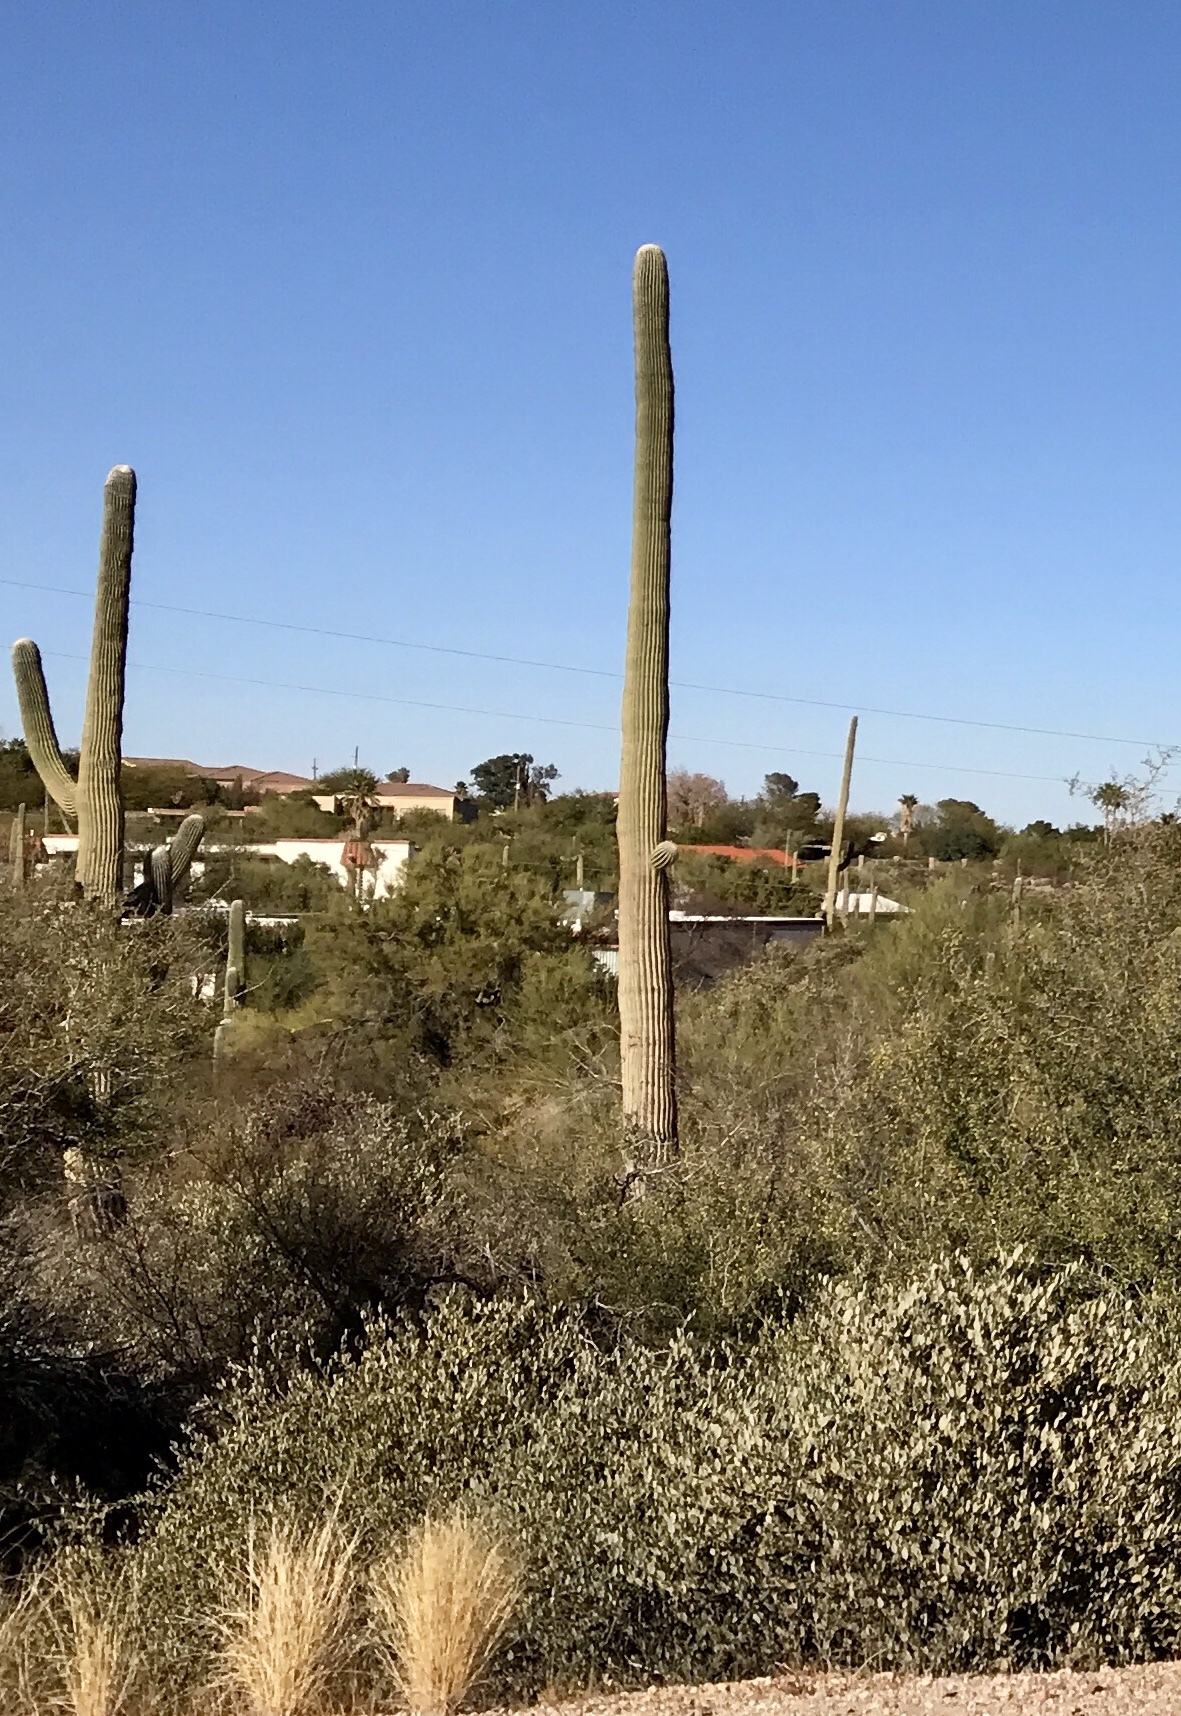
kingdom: Plantae
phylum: Tracheophyta
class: Magnoliopsida
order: Caryophyllales
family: Cactaceae
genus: Carnegiea
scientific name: Carnegiea gigantea
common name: Saguaro
